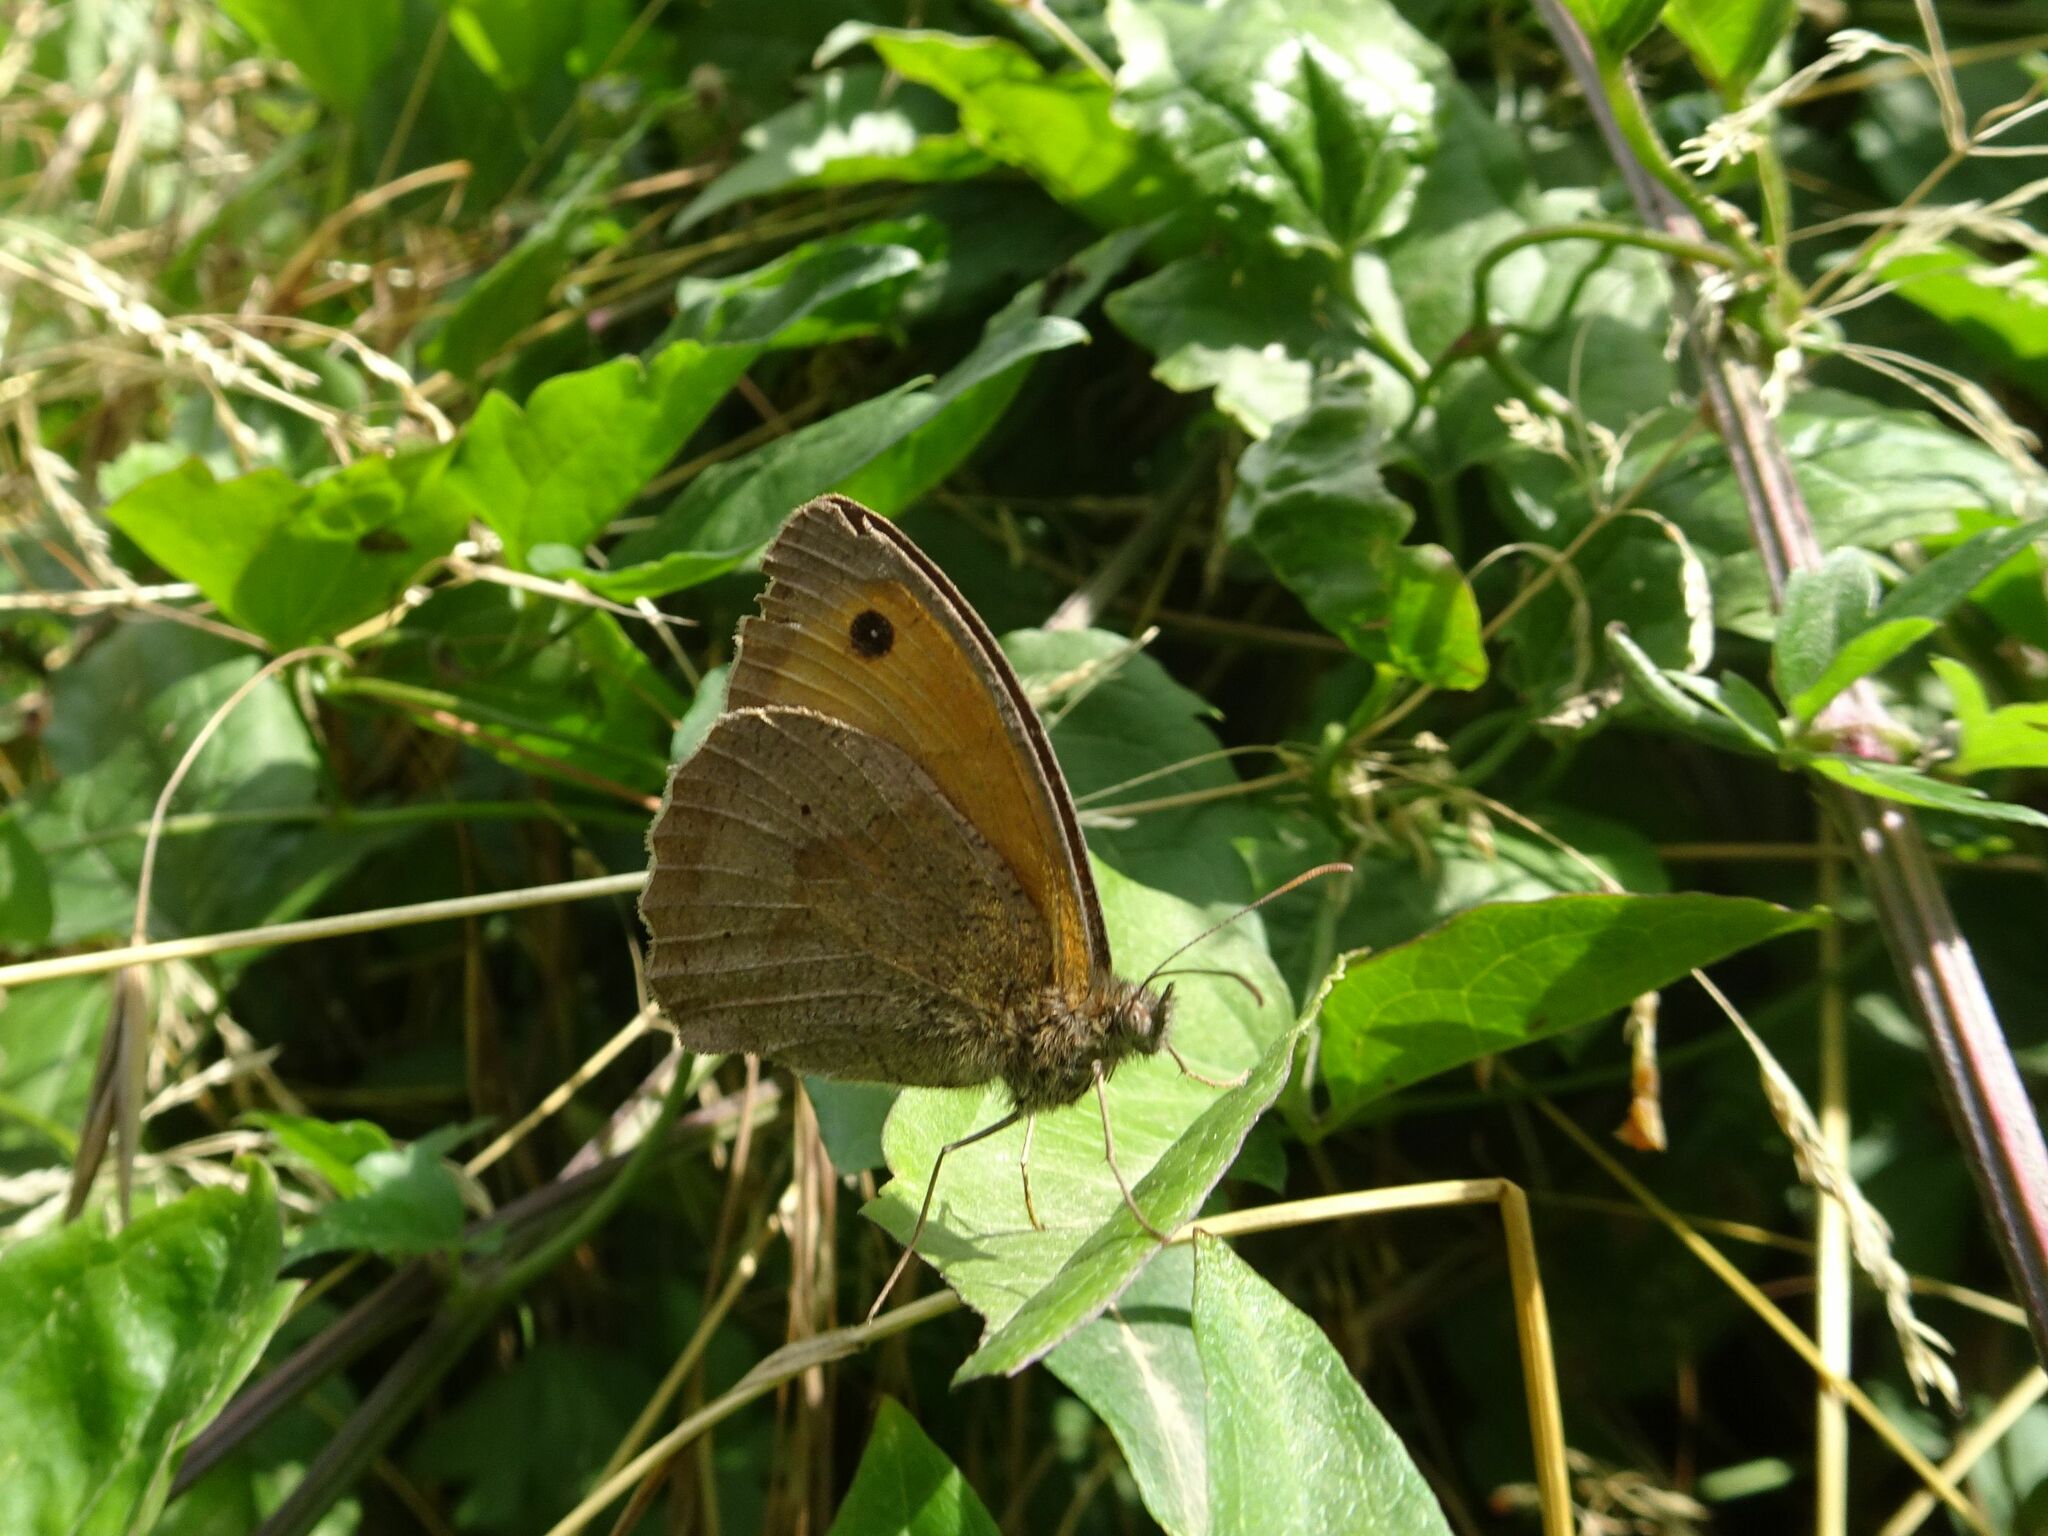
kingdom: Animalia
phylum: Arthropoda
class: Insecta
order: Lepidoptera
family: Nymphalidae
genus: Maniola
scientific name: Maniola jurtina
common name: Meadow brown
